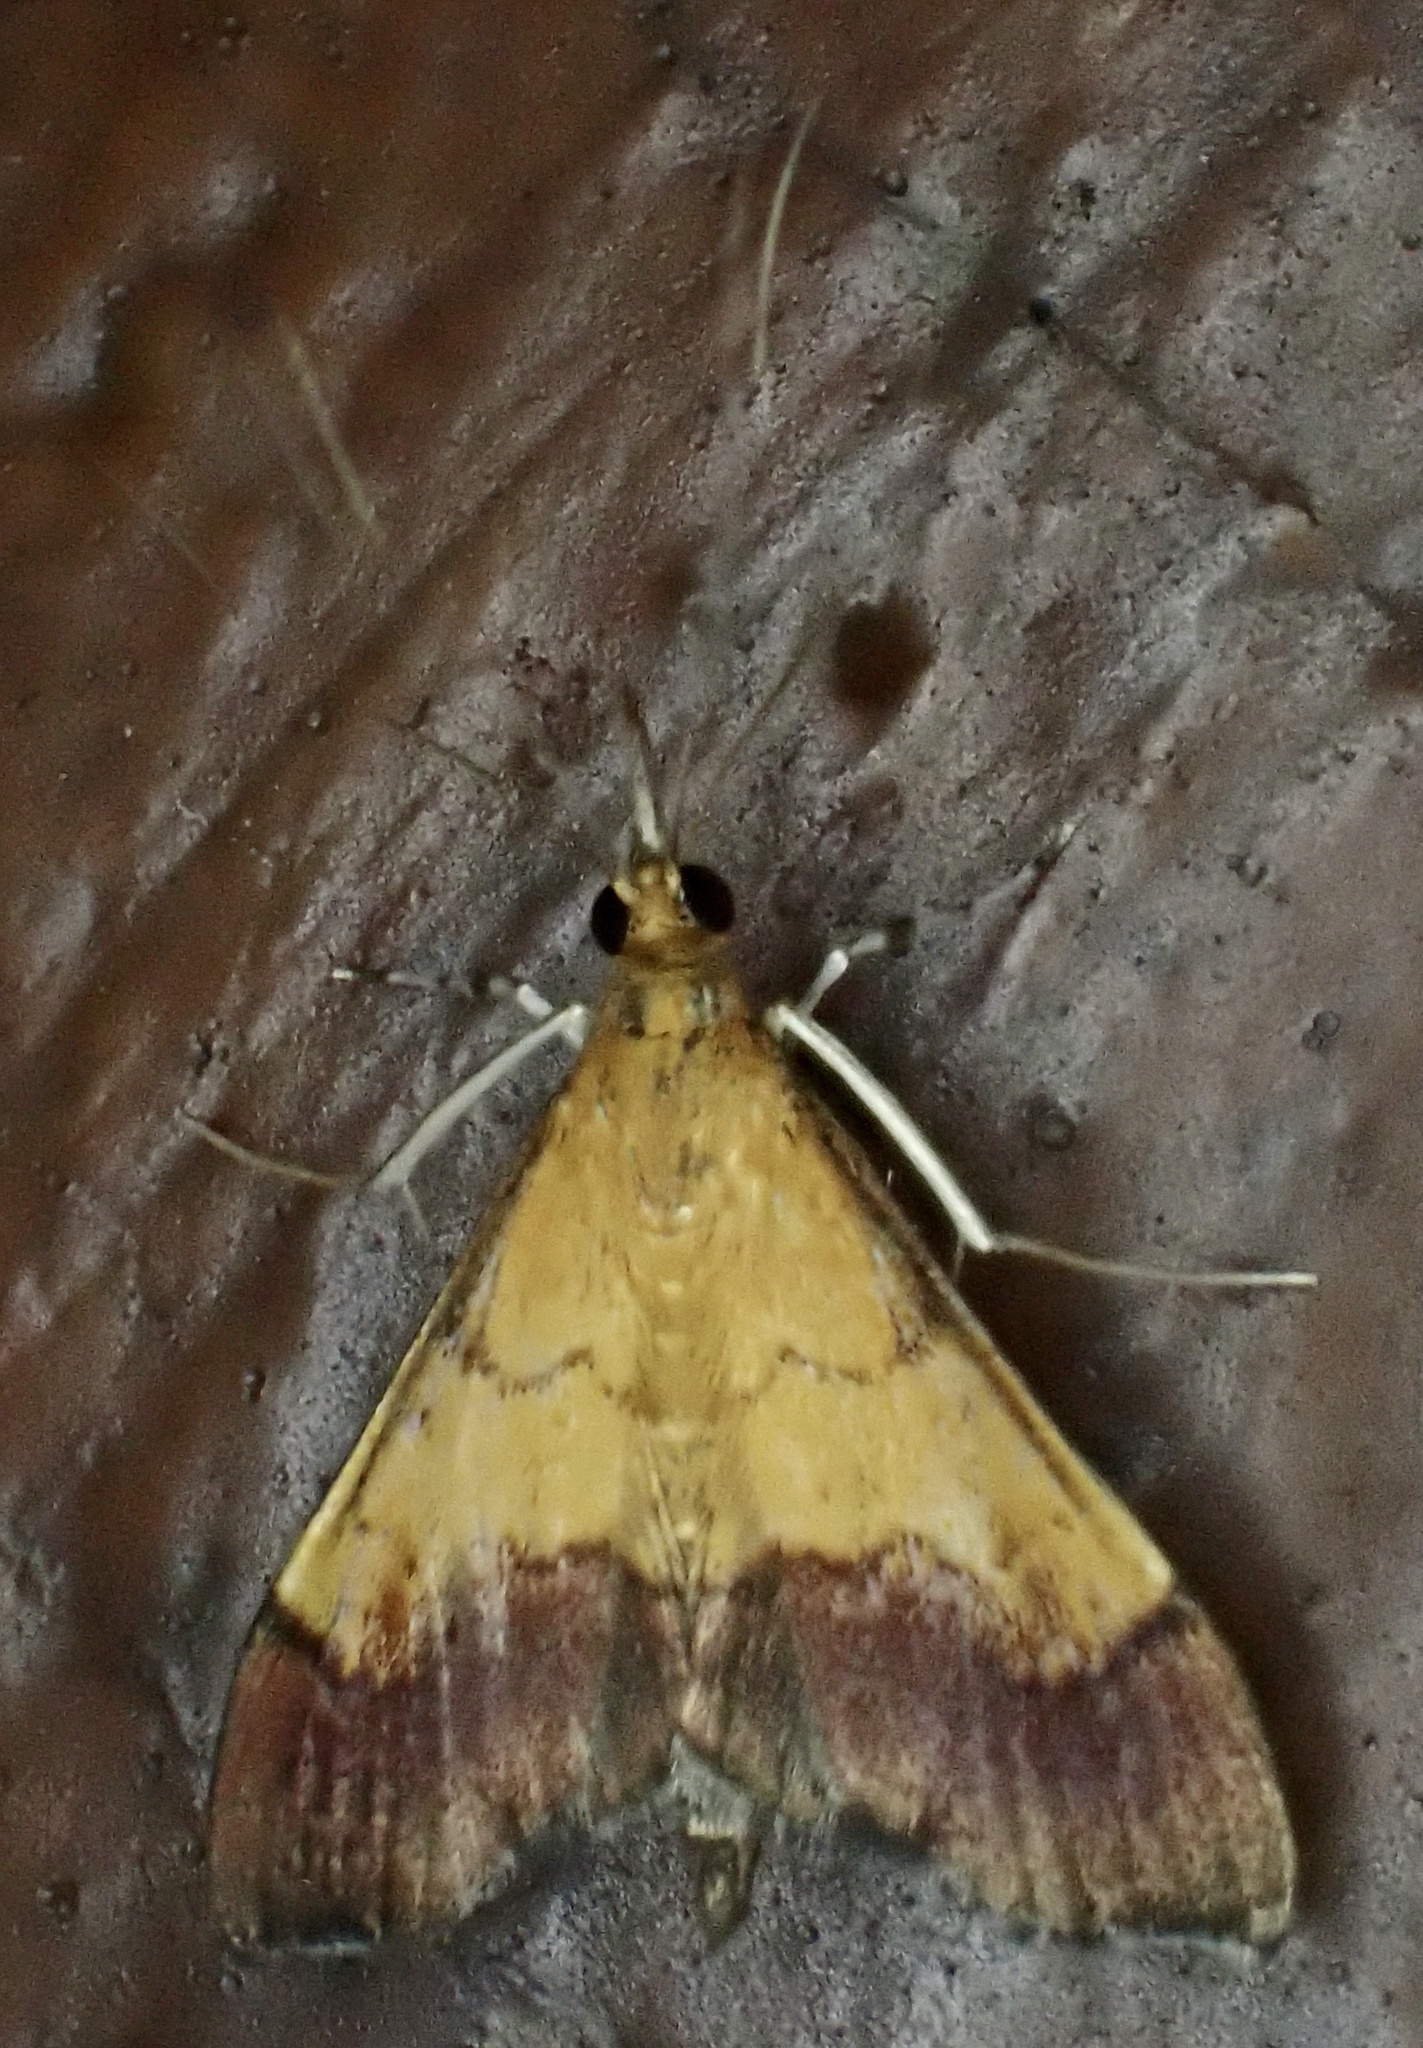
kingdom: Animalia
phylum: Arthropoda
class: Insecta
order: Lepidoptera
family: Crambidae
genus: Pyrausta
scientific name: Pyrausta bicoloralis
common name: Bicolored pyrausta moth
